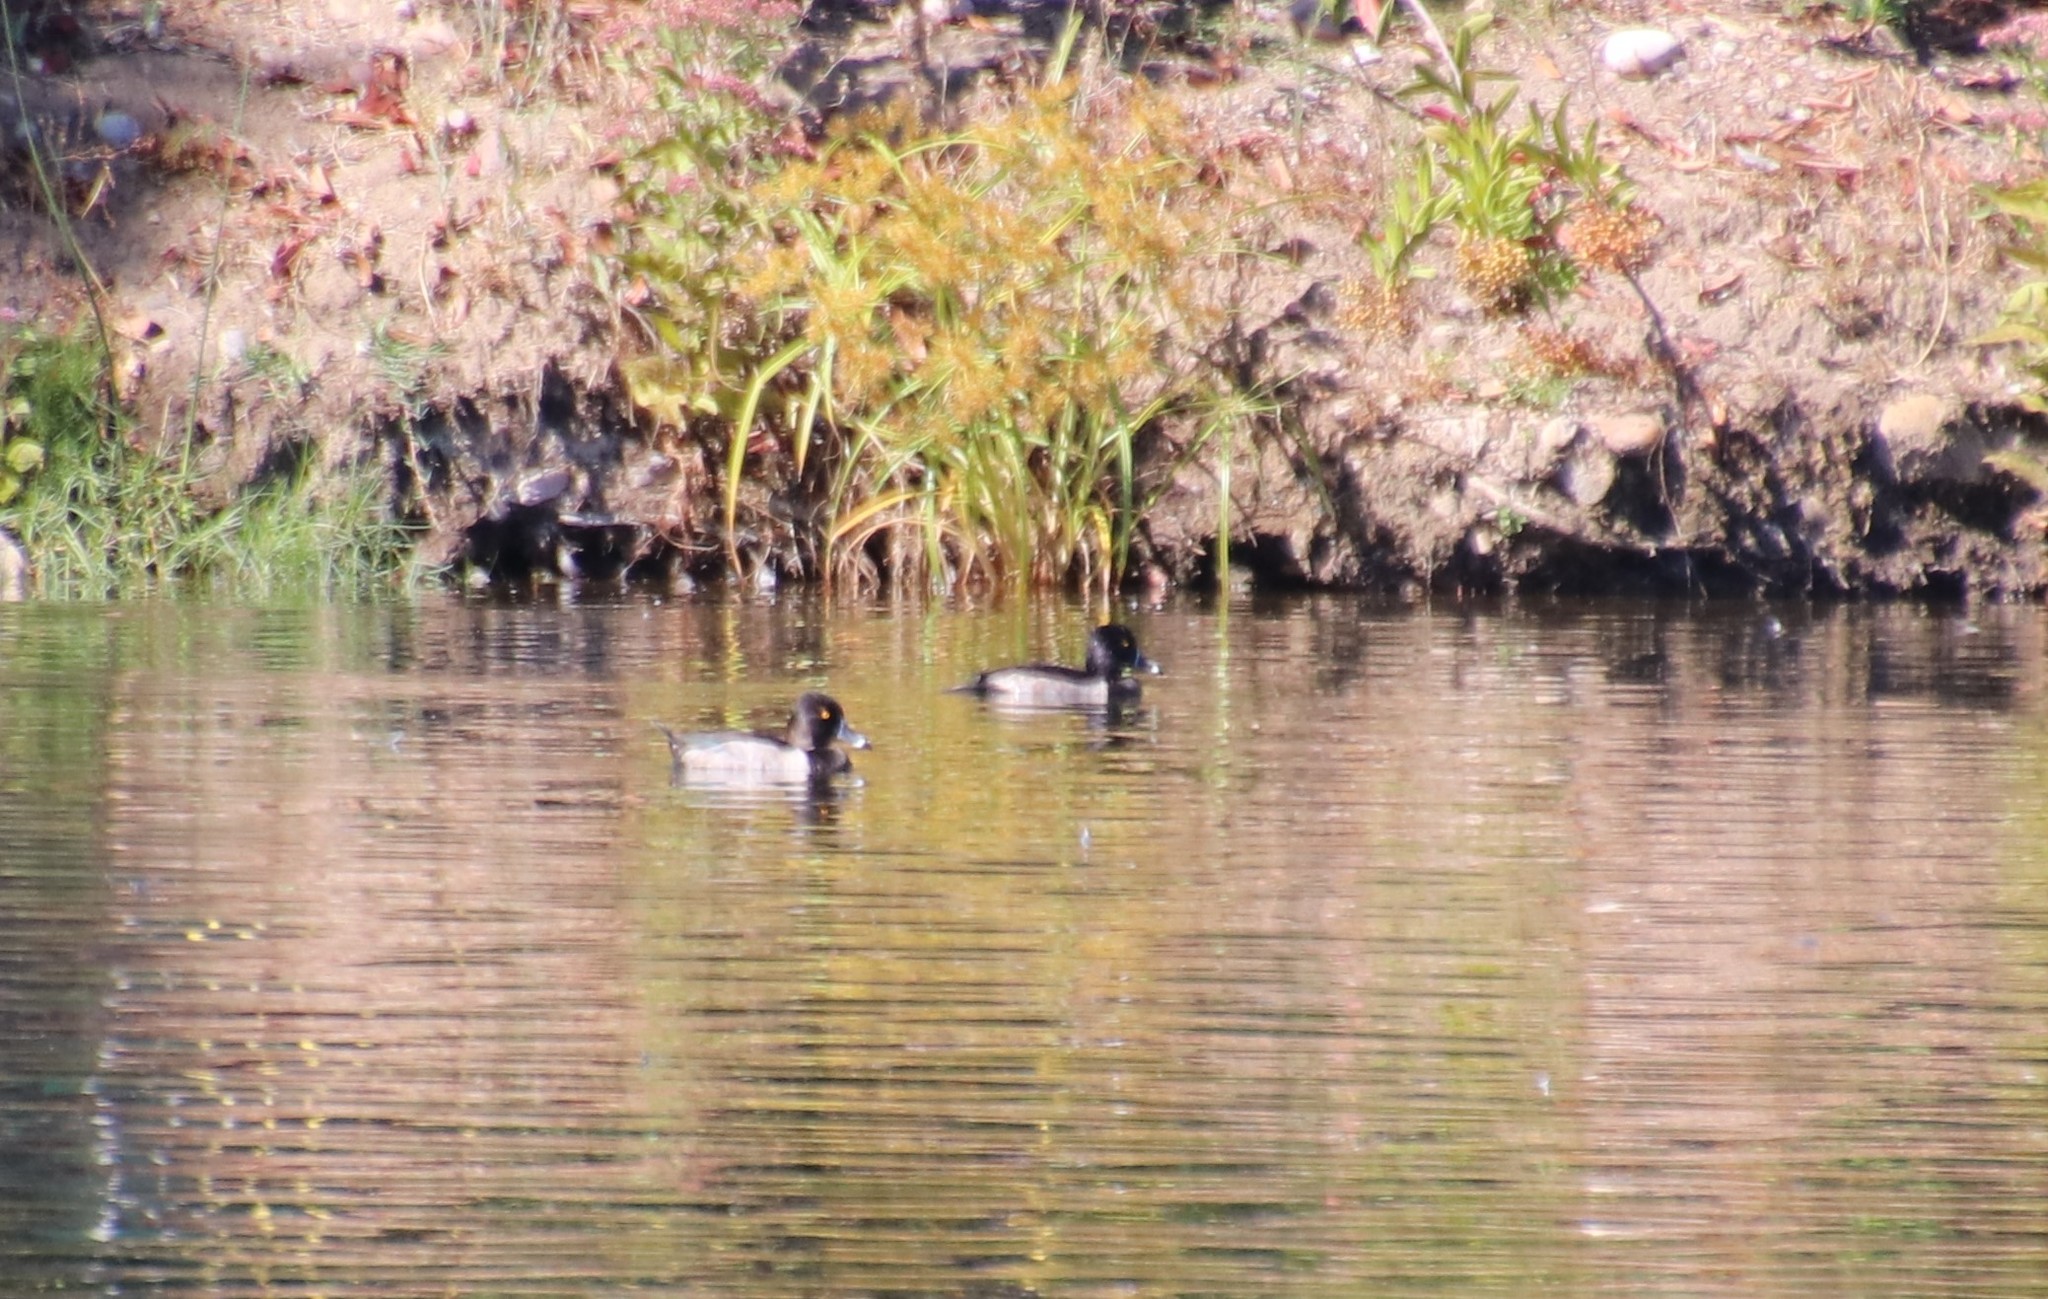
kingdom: Animalia
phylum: Chordata
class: Aves
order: Anseriformes
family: Anatidae
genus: Aythya
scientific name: Aythya collaris
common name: Ring-necked duck
